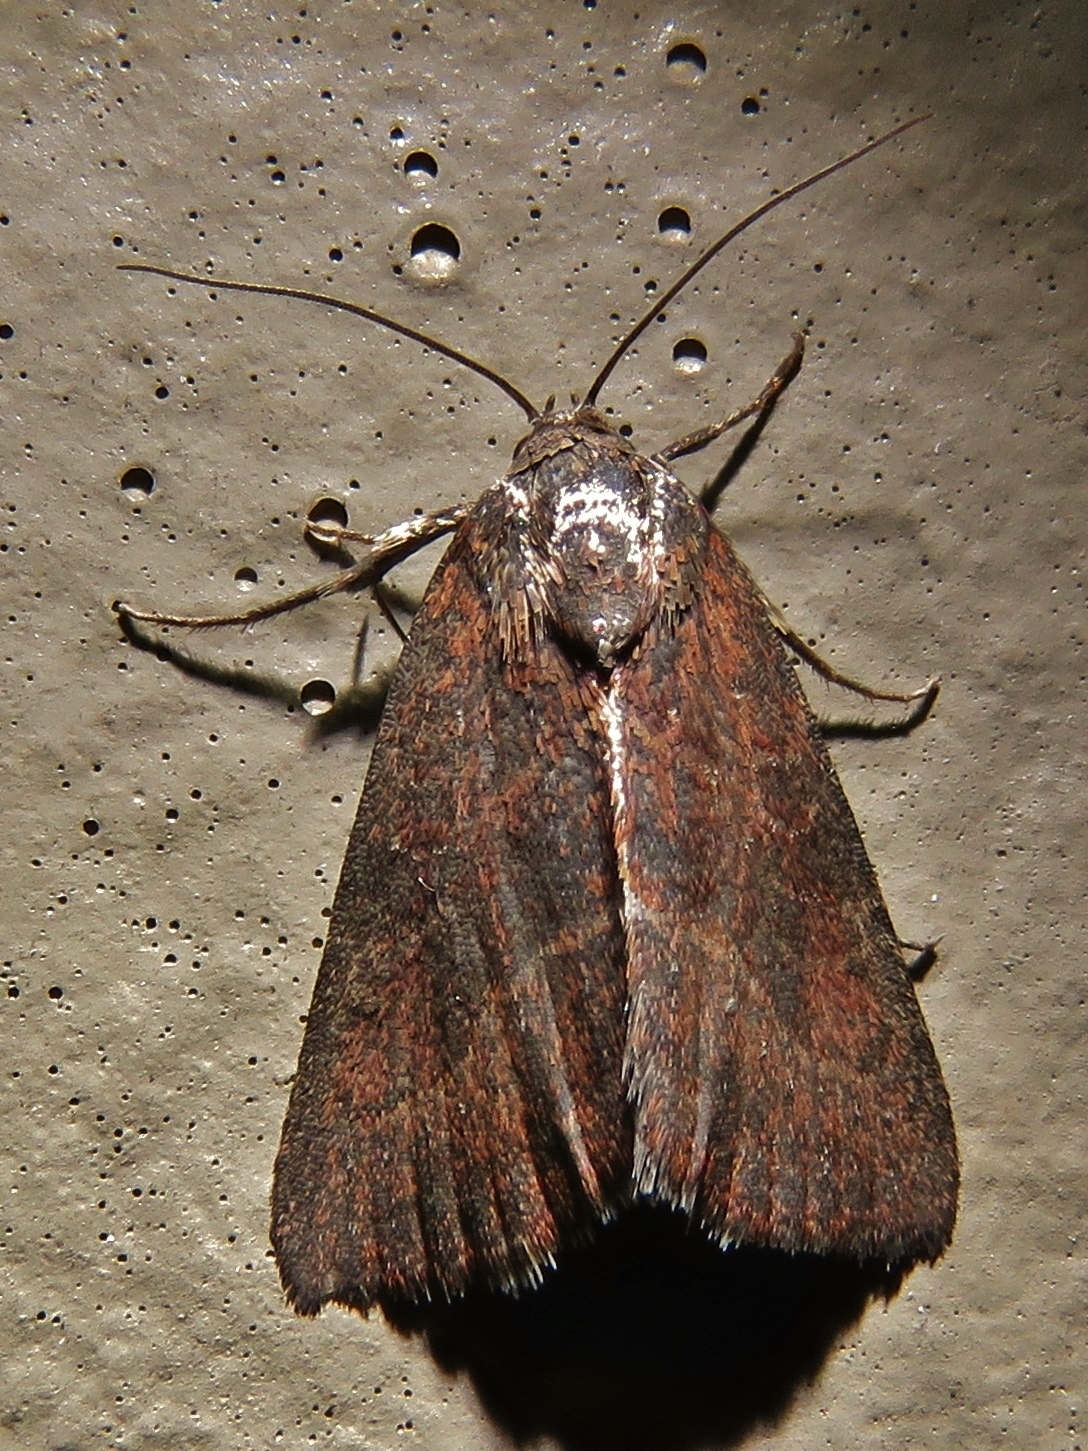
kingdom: Animalia
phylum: Arthropoda
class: Insecta
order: Lepidoptera
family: Noctuidae
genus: Galgula
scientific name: Galgula partita
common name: Wedgeling
